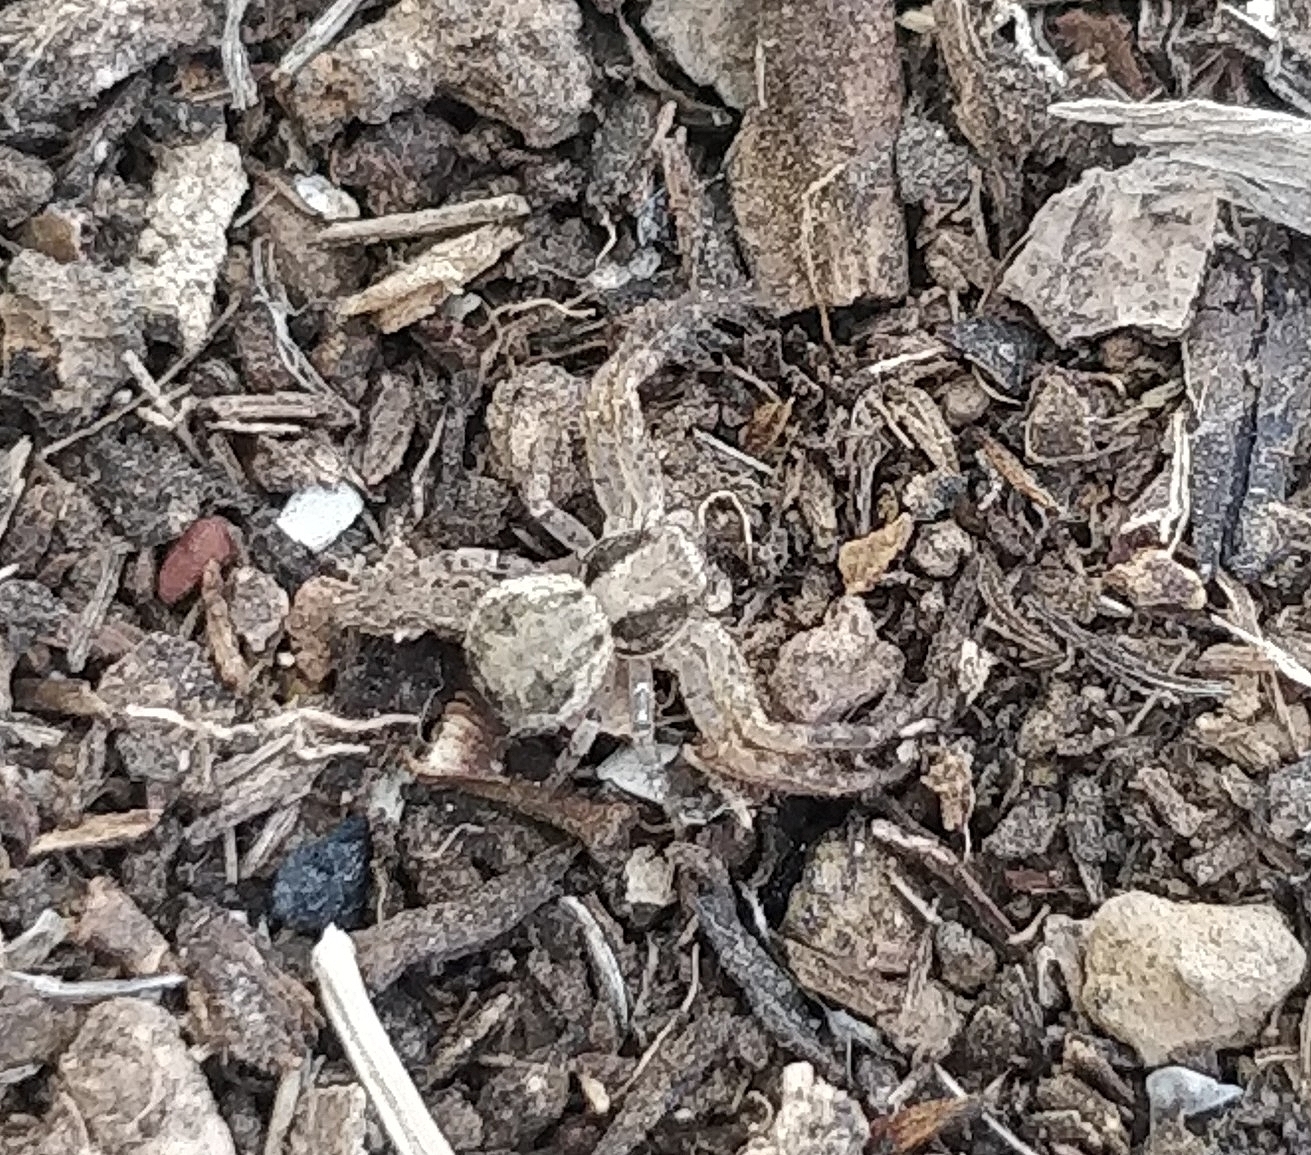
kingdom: Animalia
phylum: Arthropoda
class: Arachnida
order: Araneae
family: Thomisidae
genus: Xysticus
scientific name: Xysticus verneaui
